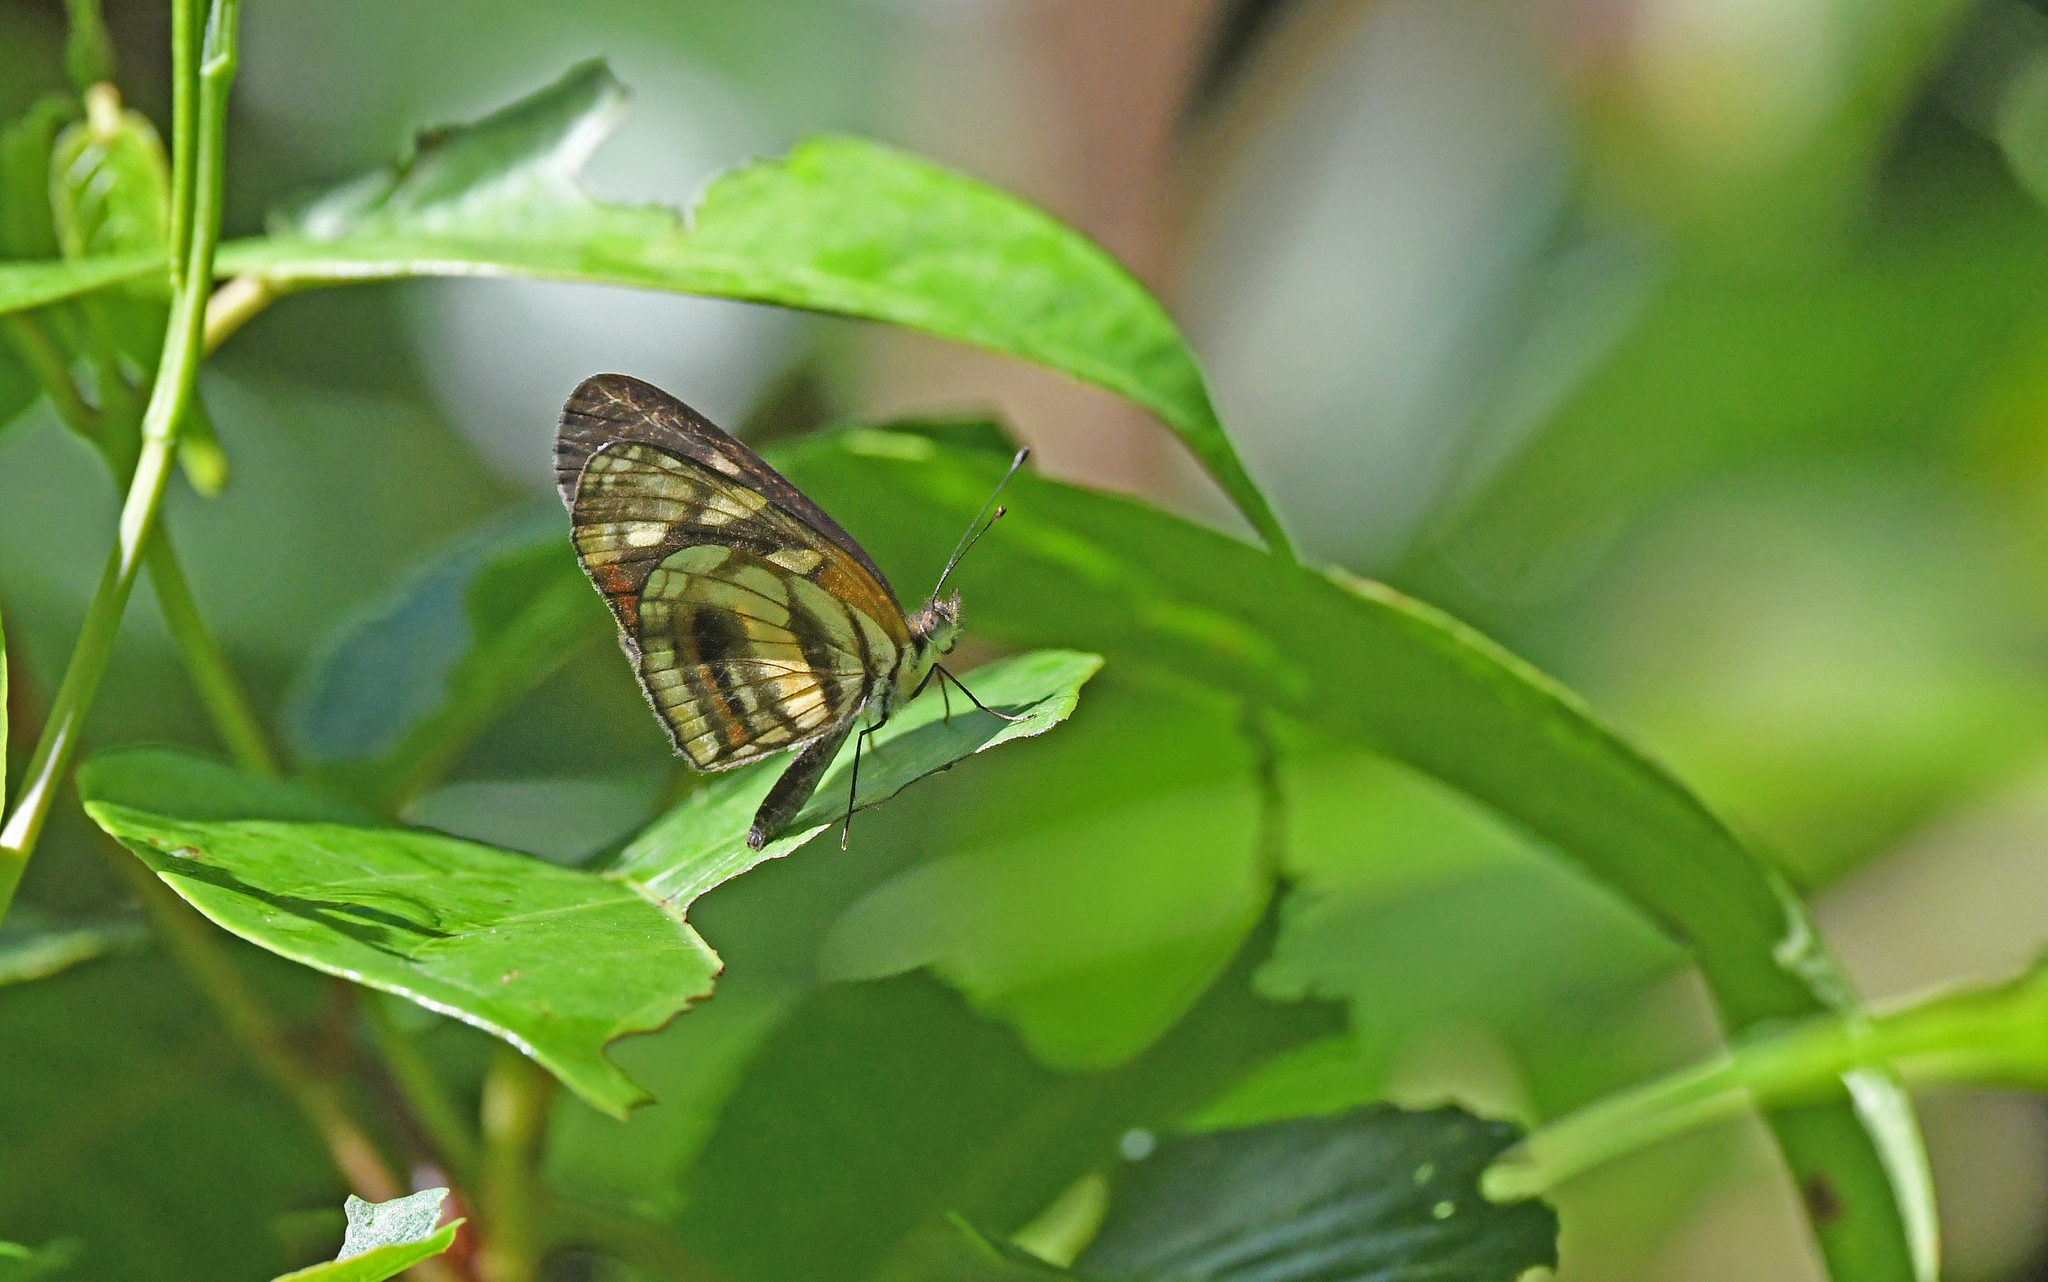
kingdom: Animalia
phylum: Arthropoda
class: Insecta
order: Lepidoptera
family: Nymphalidae
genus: Eresia
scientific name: Eresia polina
